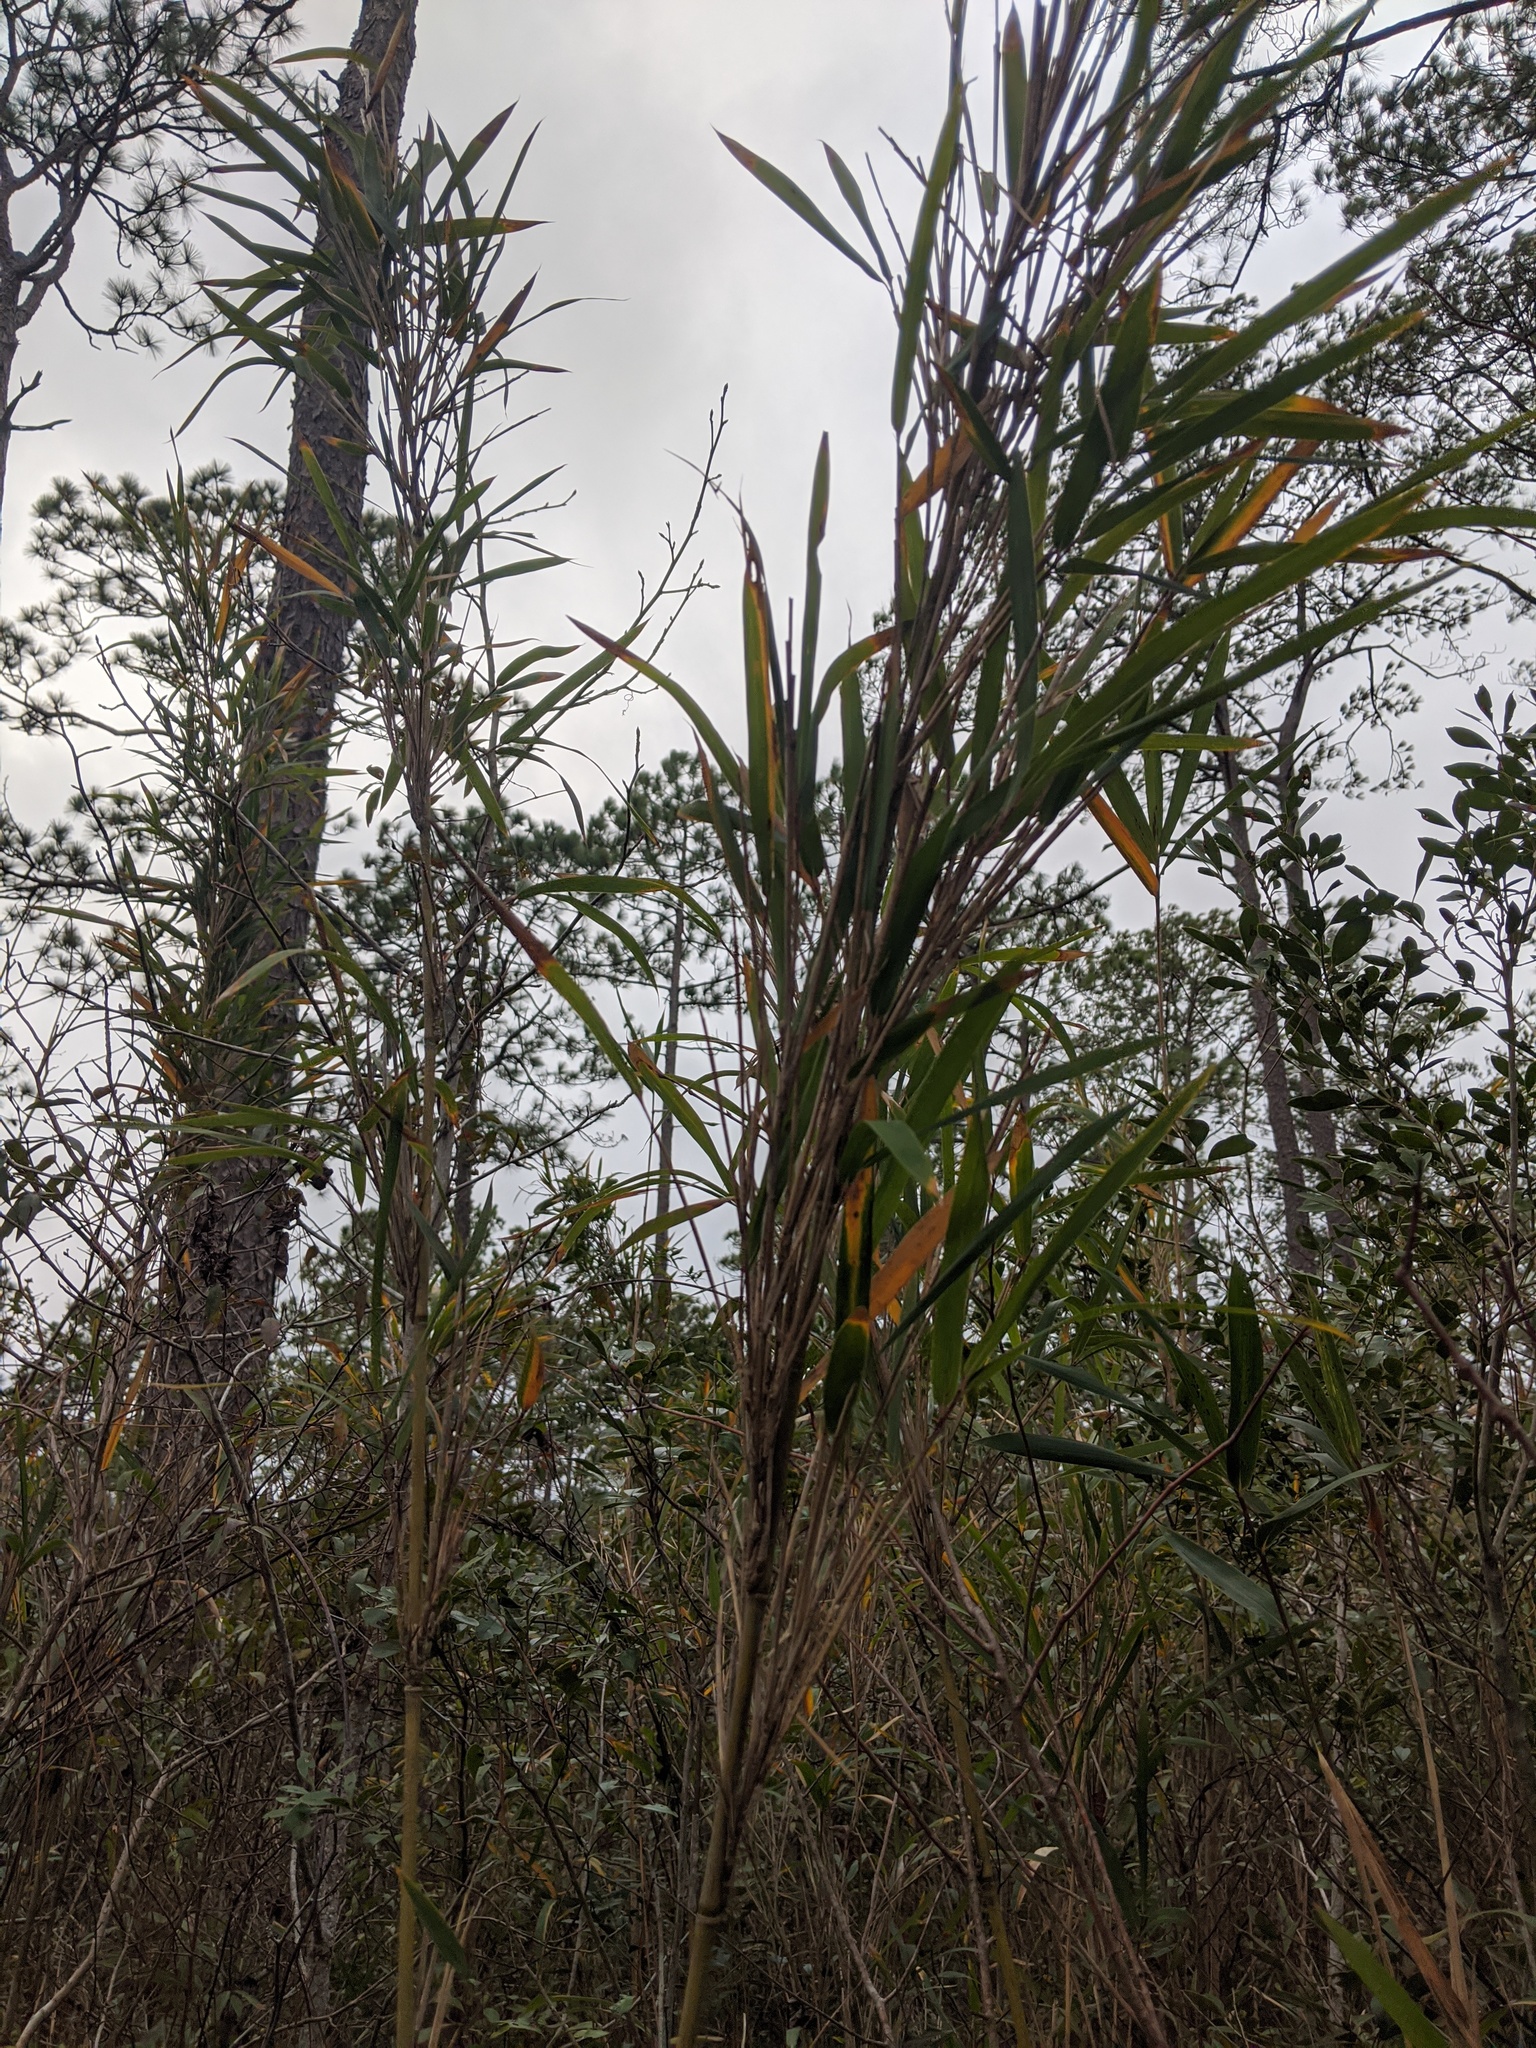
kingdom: Plantae
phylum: Tracheophyta
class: Liliopsida
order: Poales
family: Poaceae
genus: Arundinaria
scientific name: Arundinaria tecta
